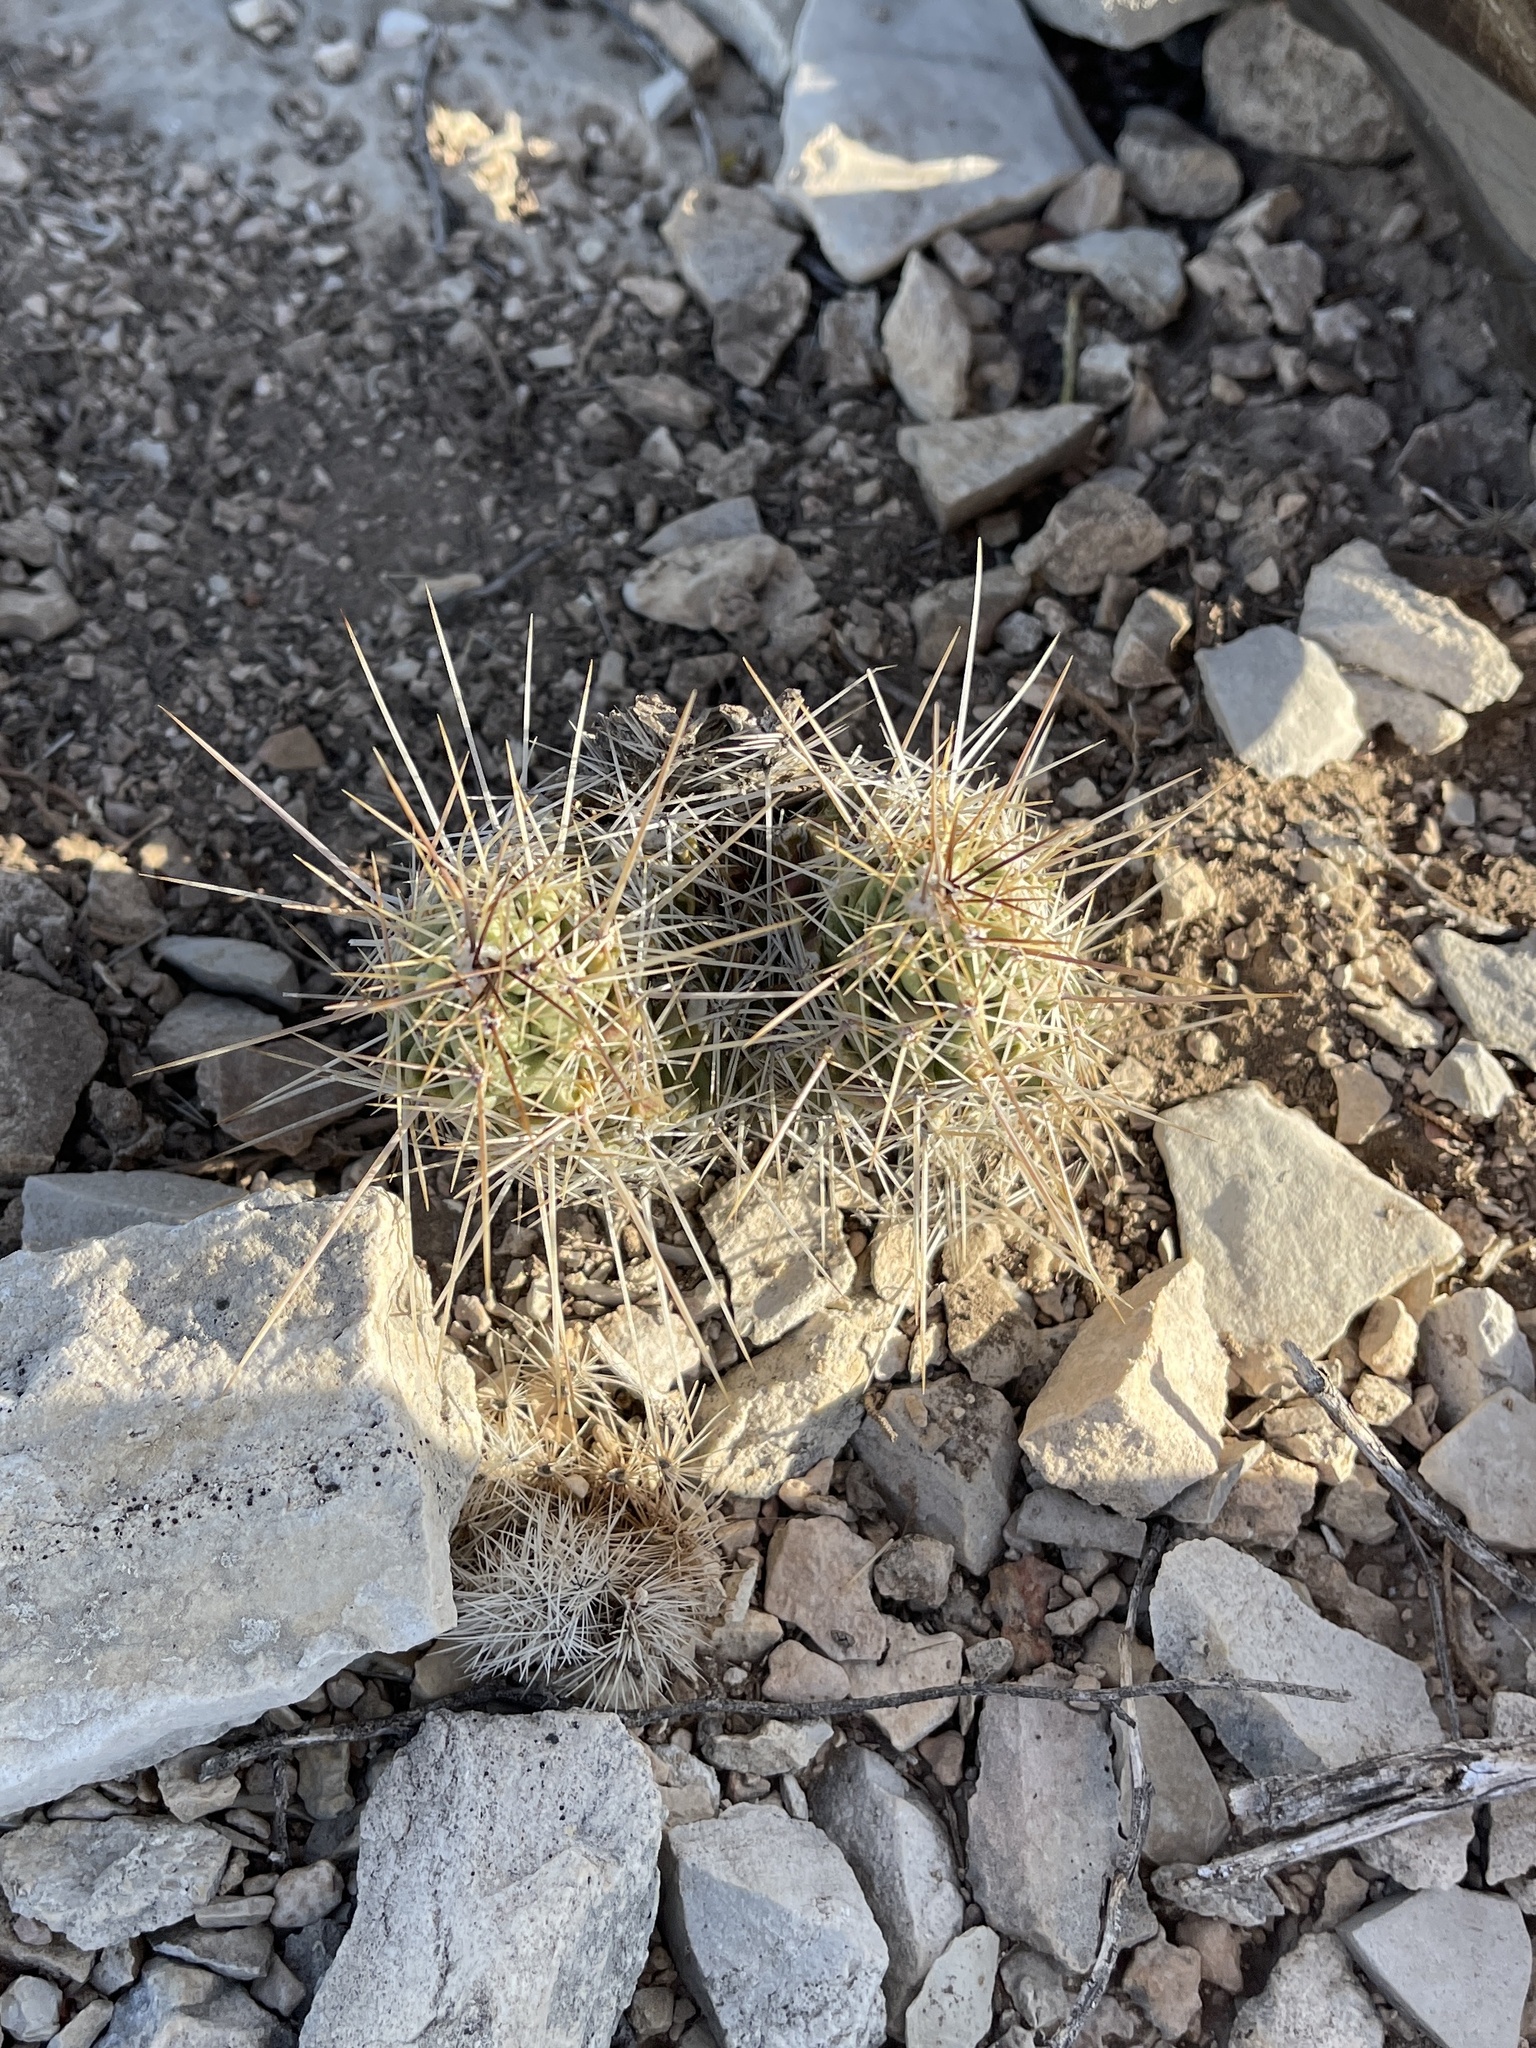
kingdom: Plantae
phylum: Tracheophyta
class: Magnoliopsida
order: Caryophyllales
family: Cactaceae
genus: Echinocereus
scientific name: Echinocereus enneacanthus
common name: Pitaya
